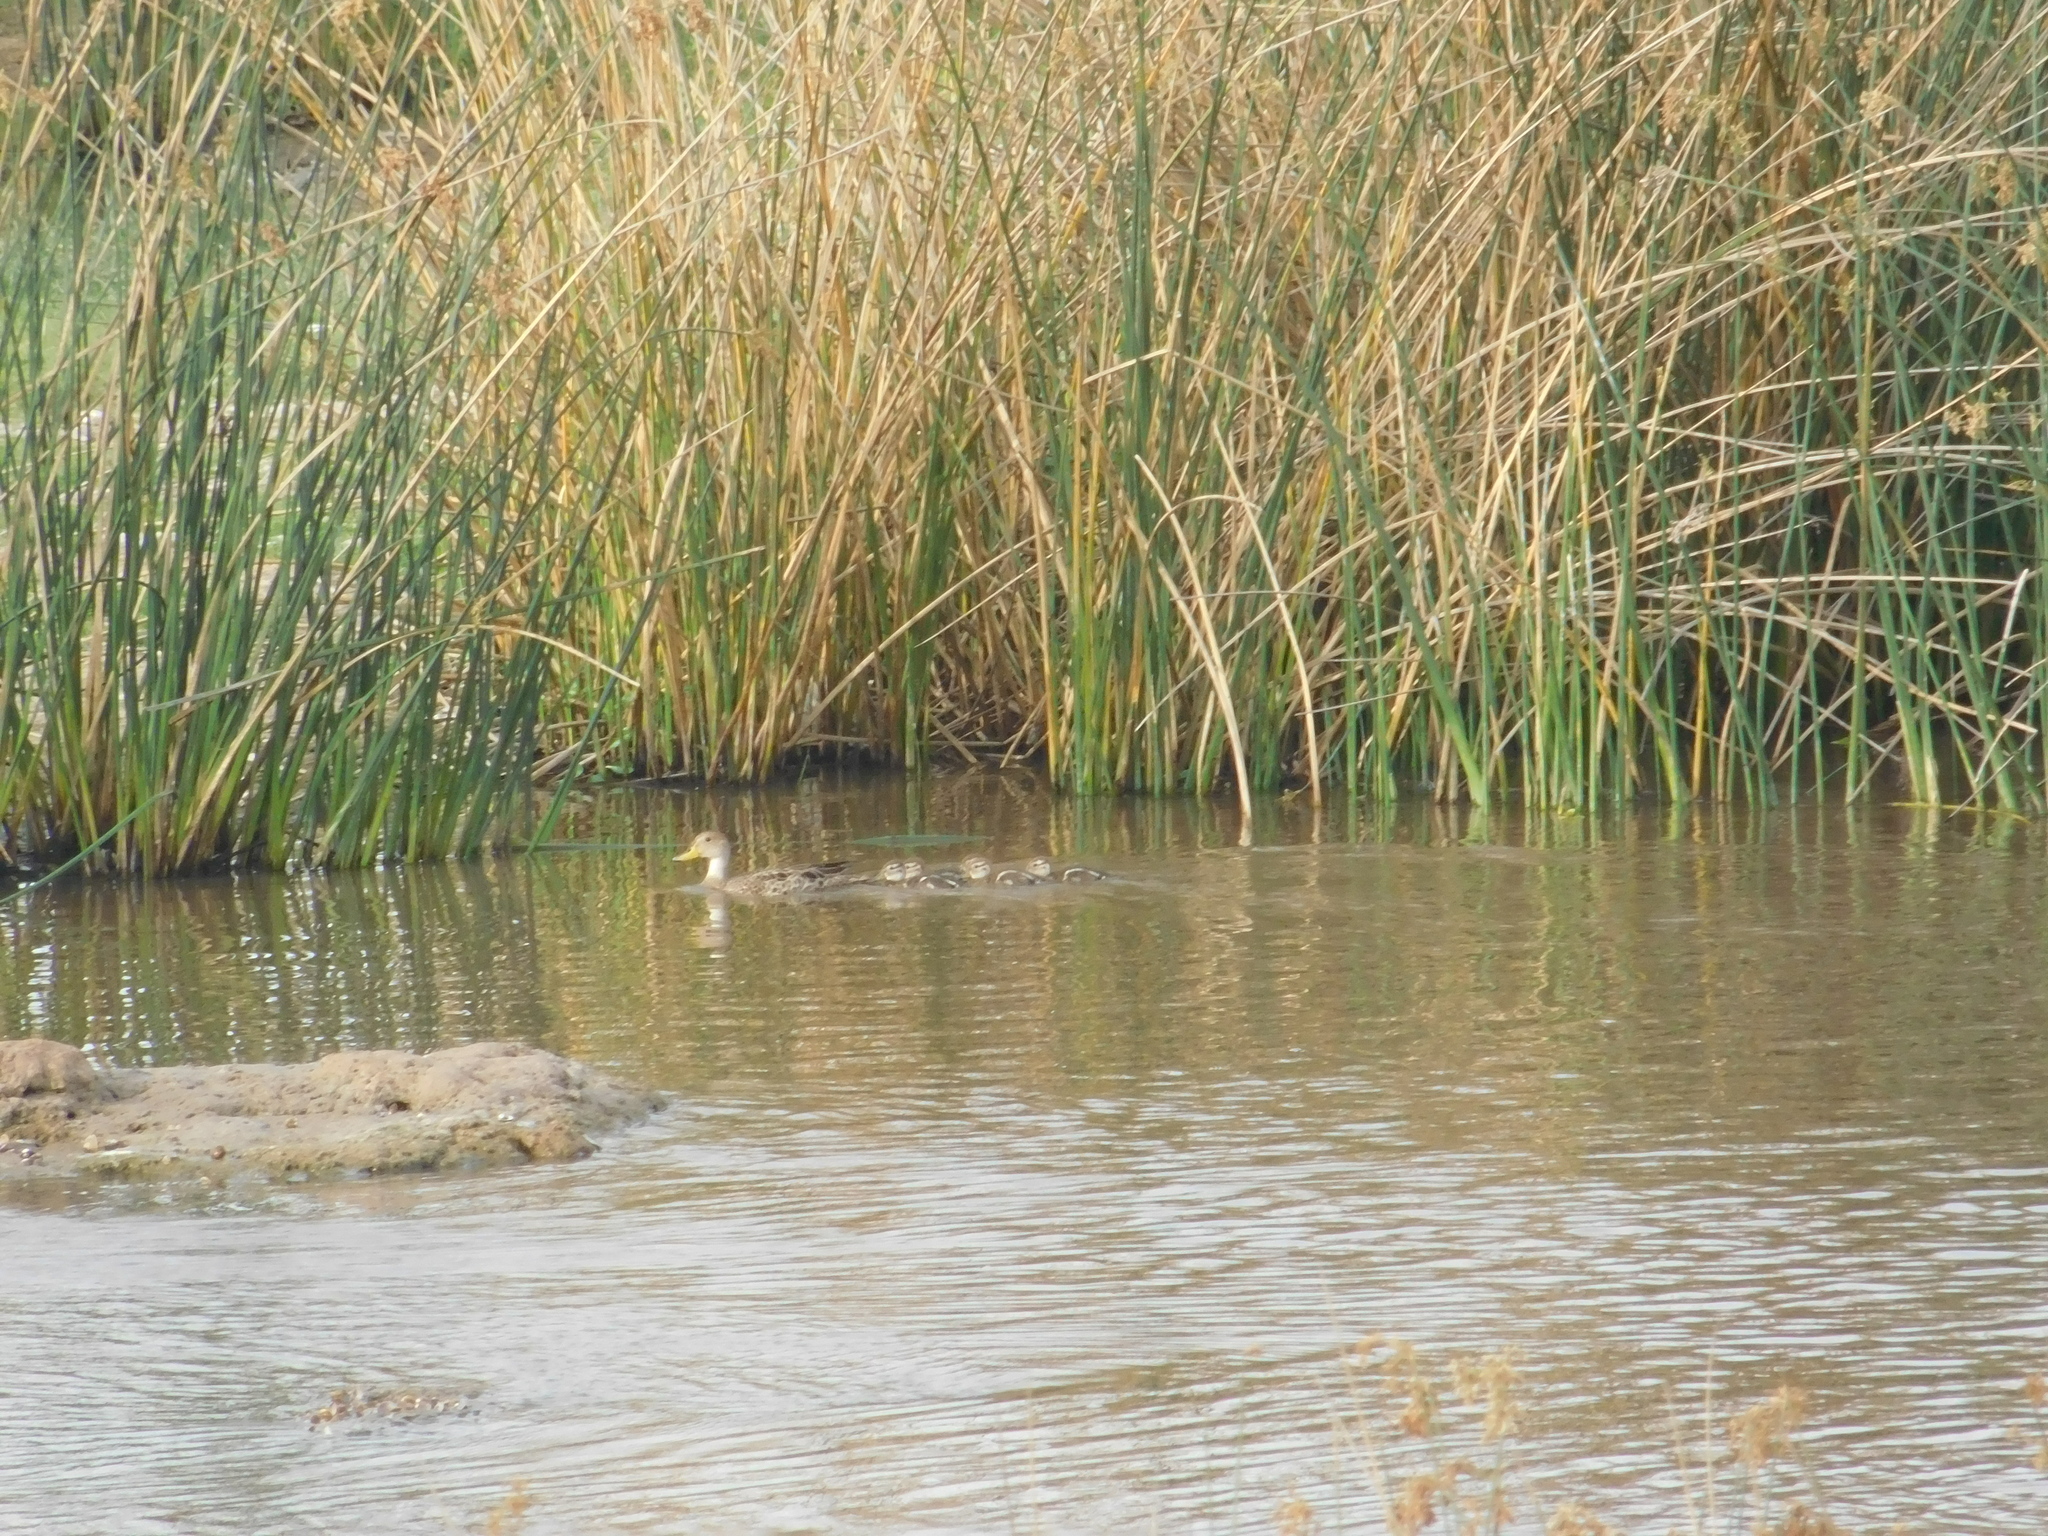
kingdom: Animalia
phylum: Chordata
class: Aves
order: Anseriformes
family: Anatidae
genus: Anas
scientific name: Anas georgica
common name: Yellow-billed pintail
